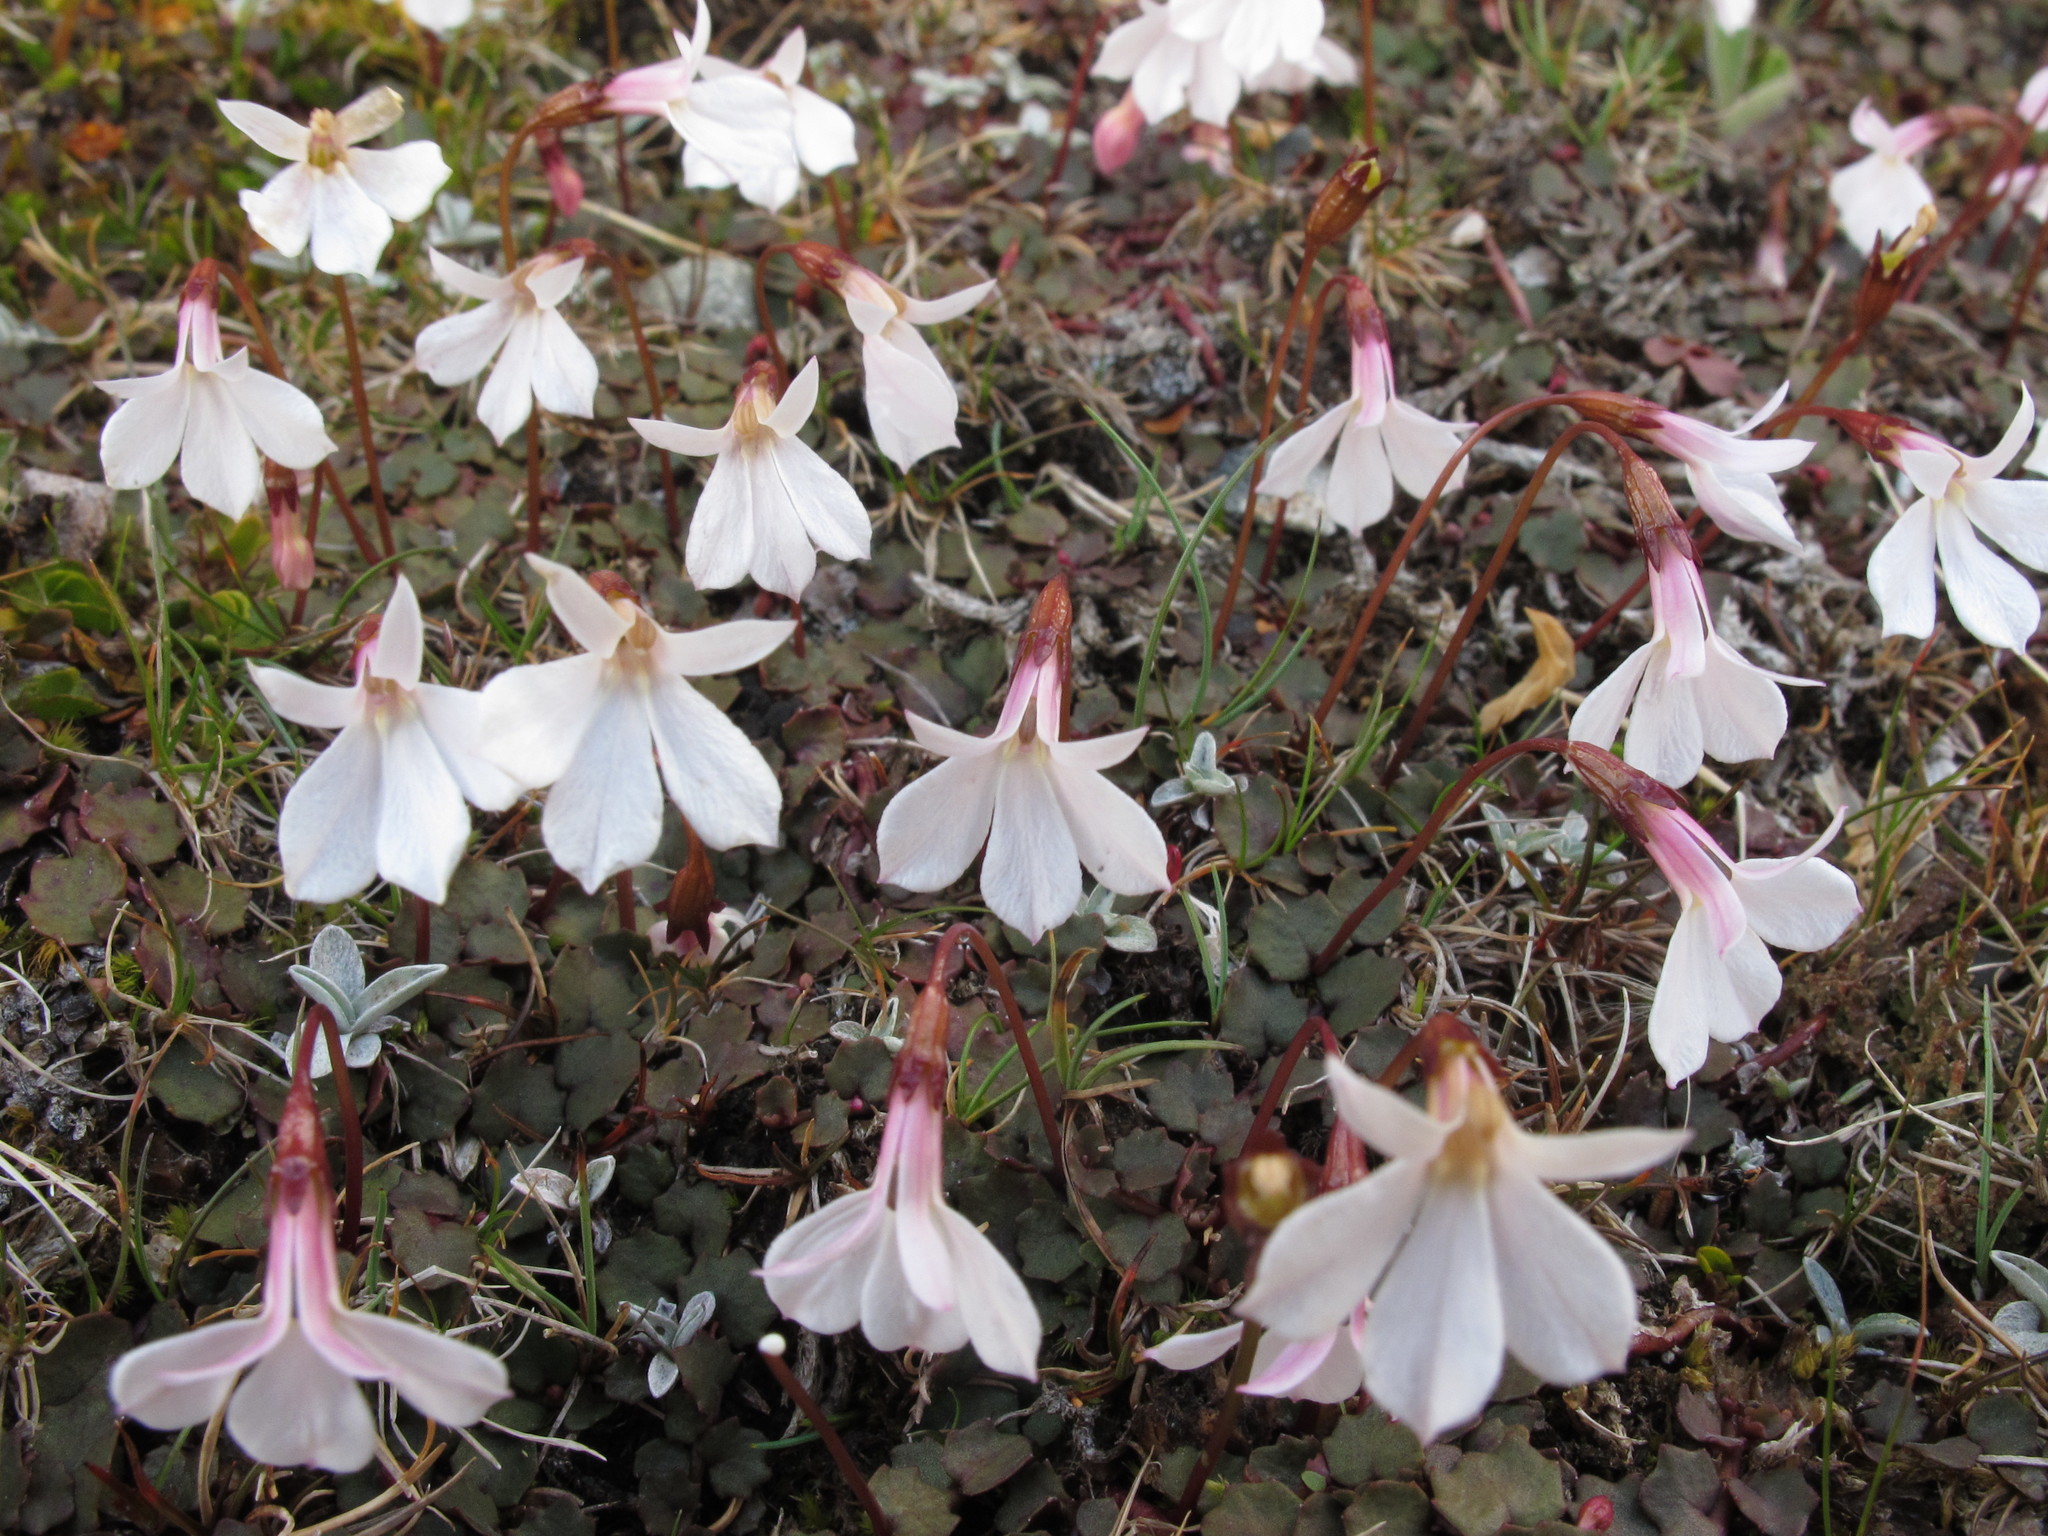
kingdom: Plantae
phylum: Tracheophyta
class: Magnoliopsida
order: Asterales
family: Campanulaceae
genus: Lobelia
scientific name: Lobelia angulata
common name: Lawn lobelia
